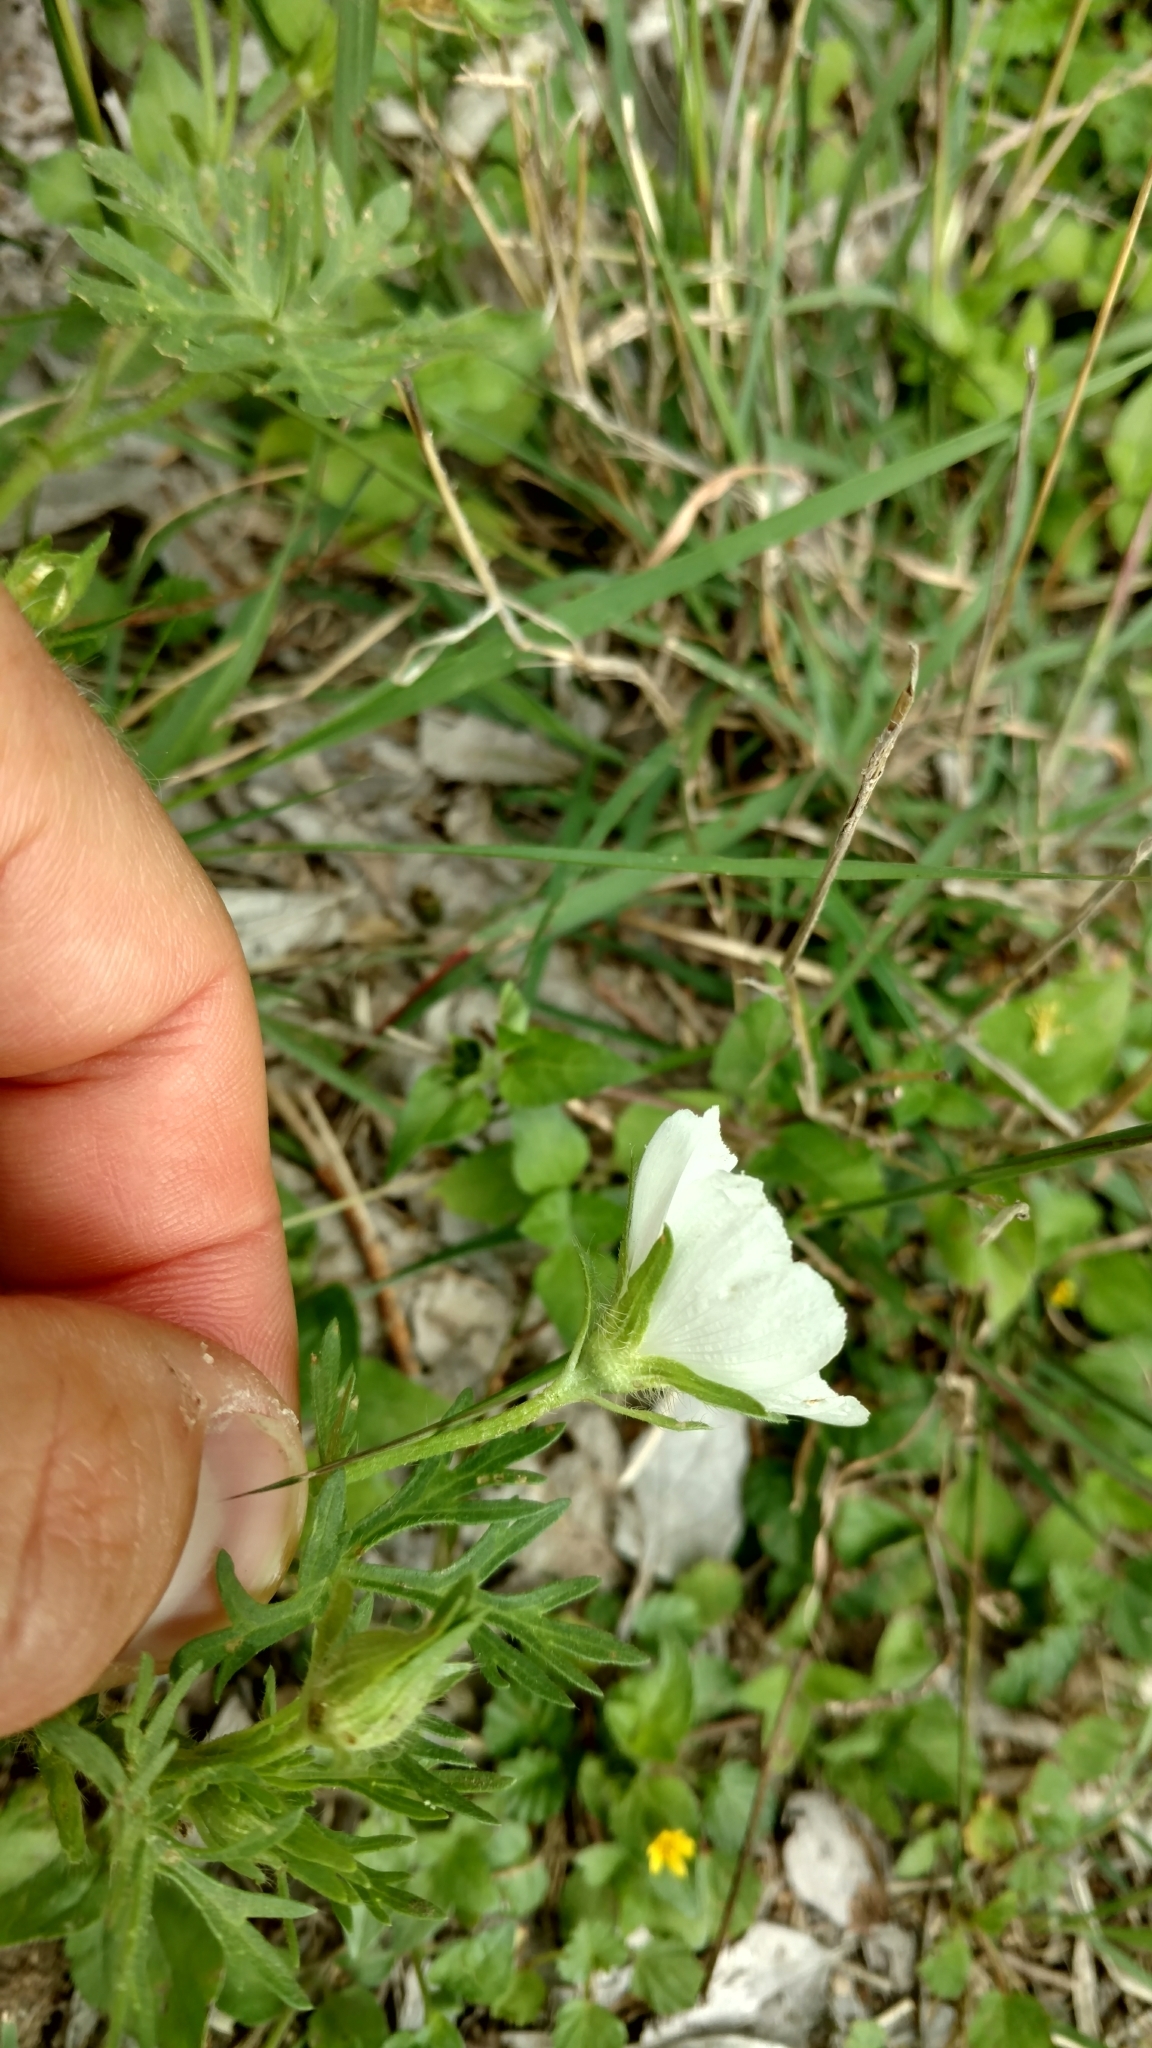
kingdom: Plantae
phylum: Tracheophyta
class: Magnoliopsida
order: Malvales
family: Malvaceae
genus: Callirhoe
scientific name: Callirhoe involucrata
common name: Purple poppy-mallow
